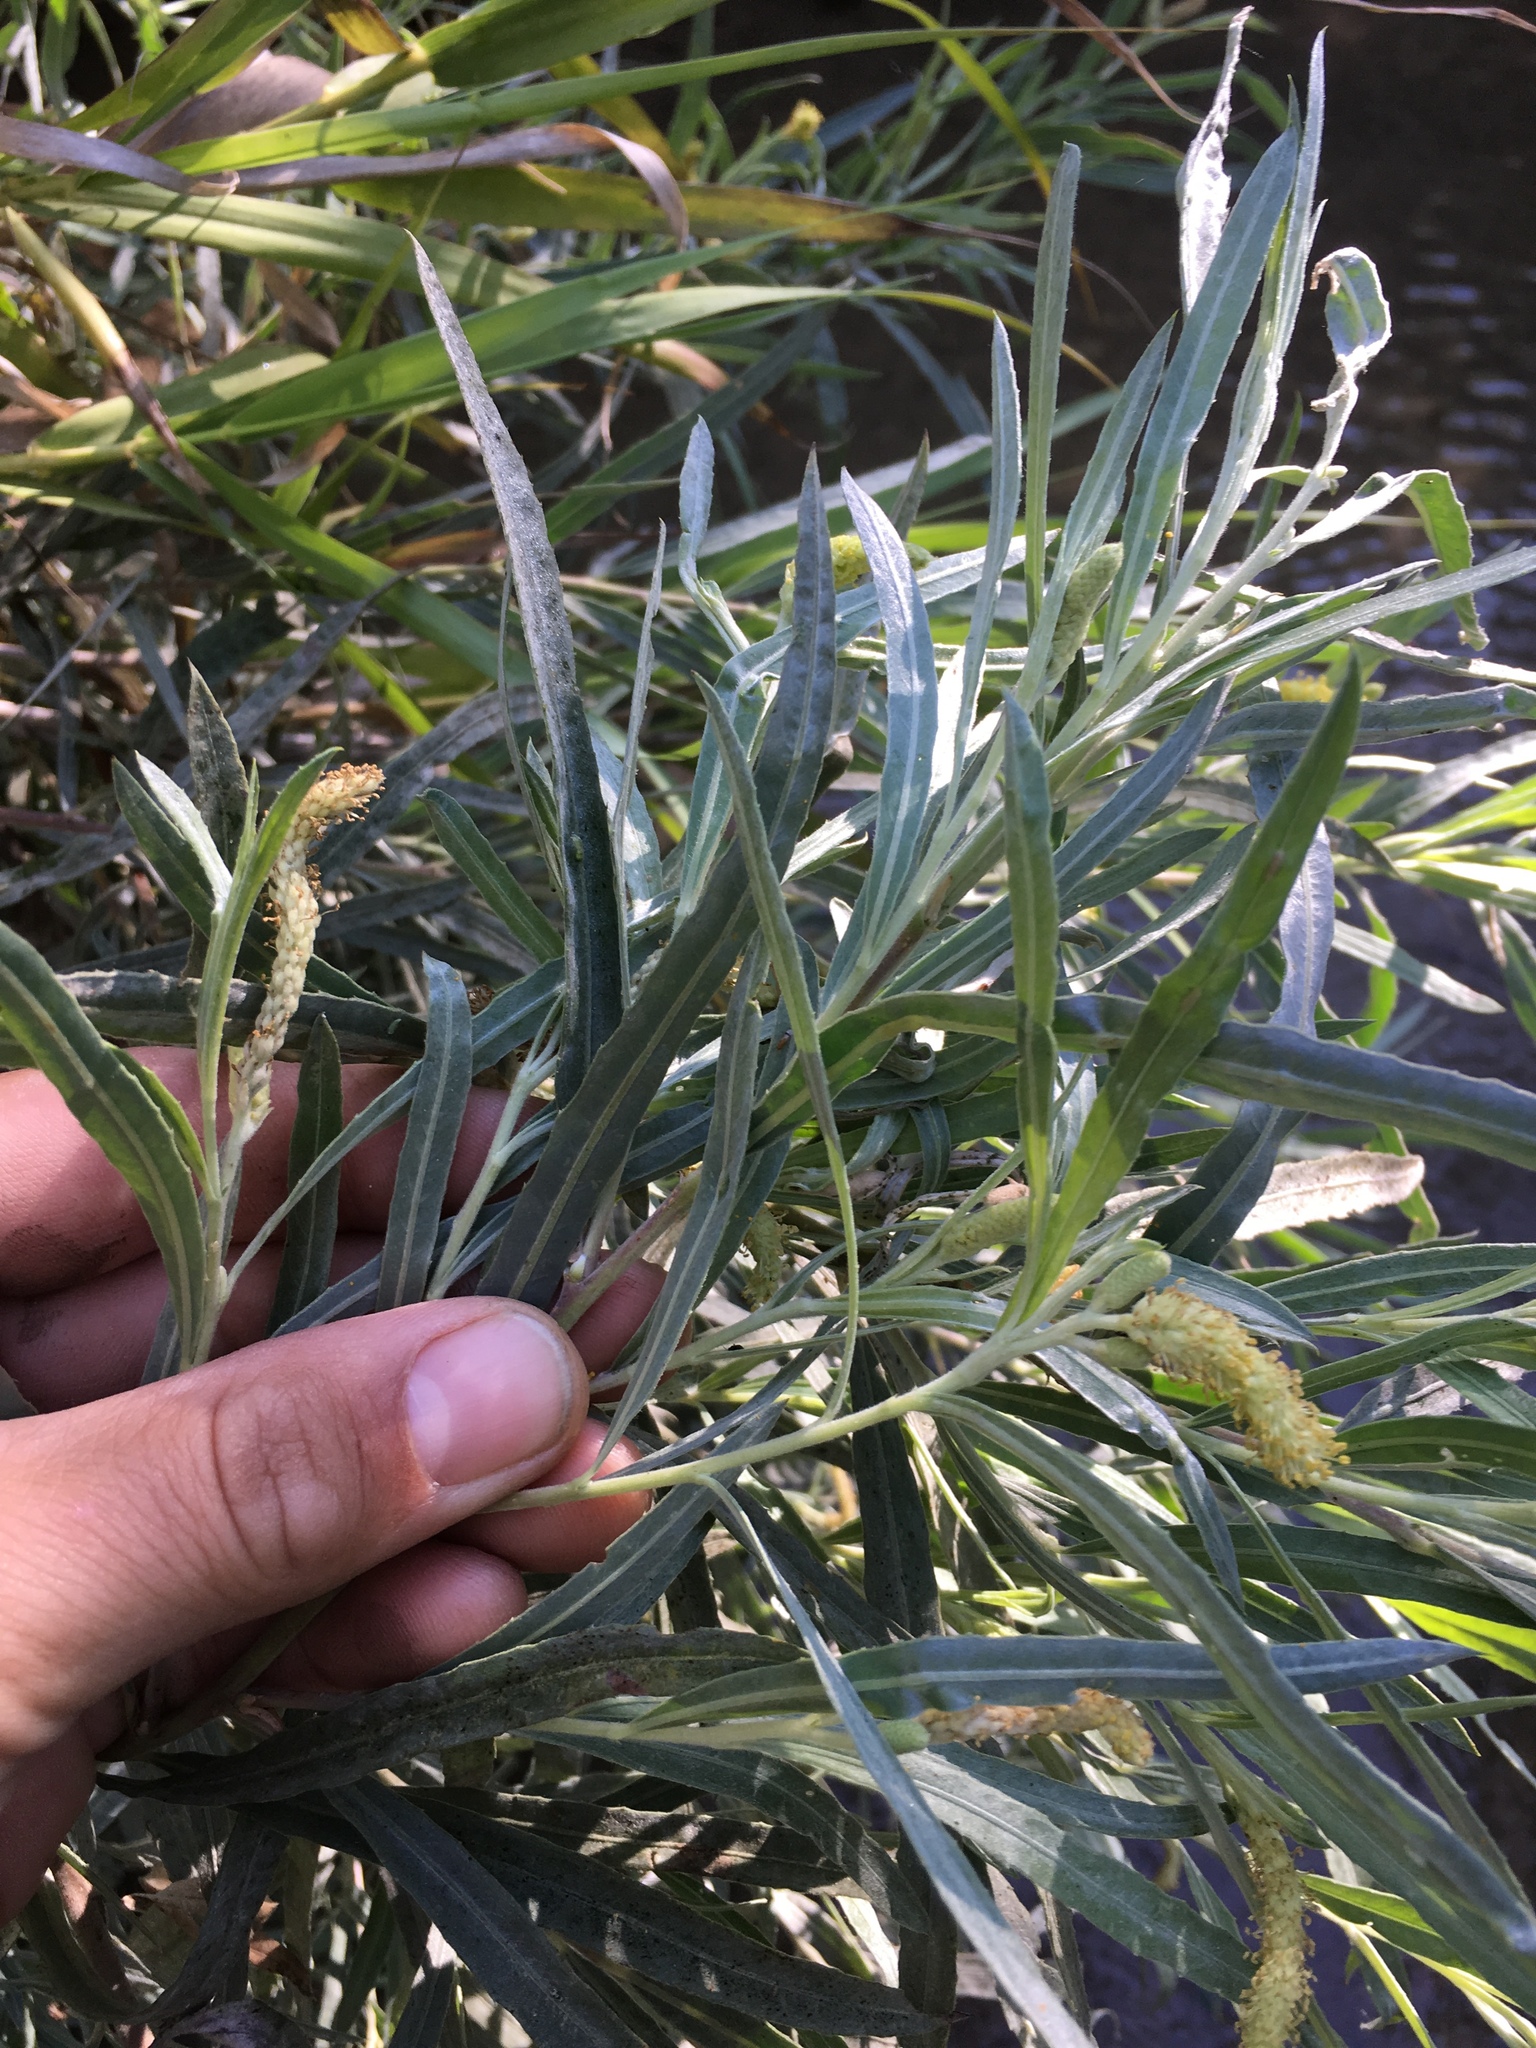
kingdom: Plantae
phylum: Tracheophyta
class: Magnoliopsida
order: Malpighiales
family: Salicaceae
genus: Salix
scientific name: Salix exigua
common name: Coyote willow
